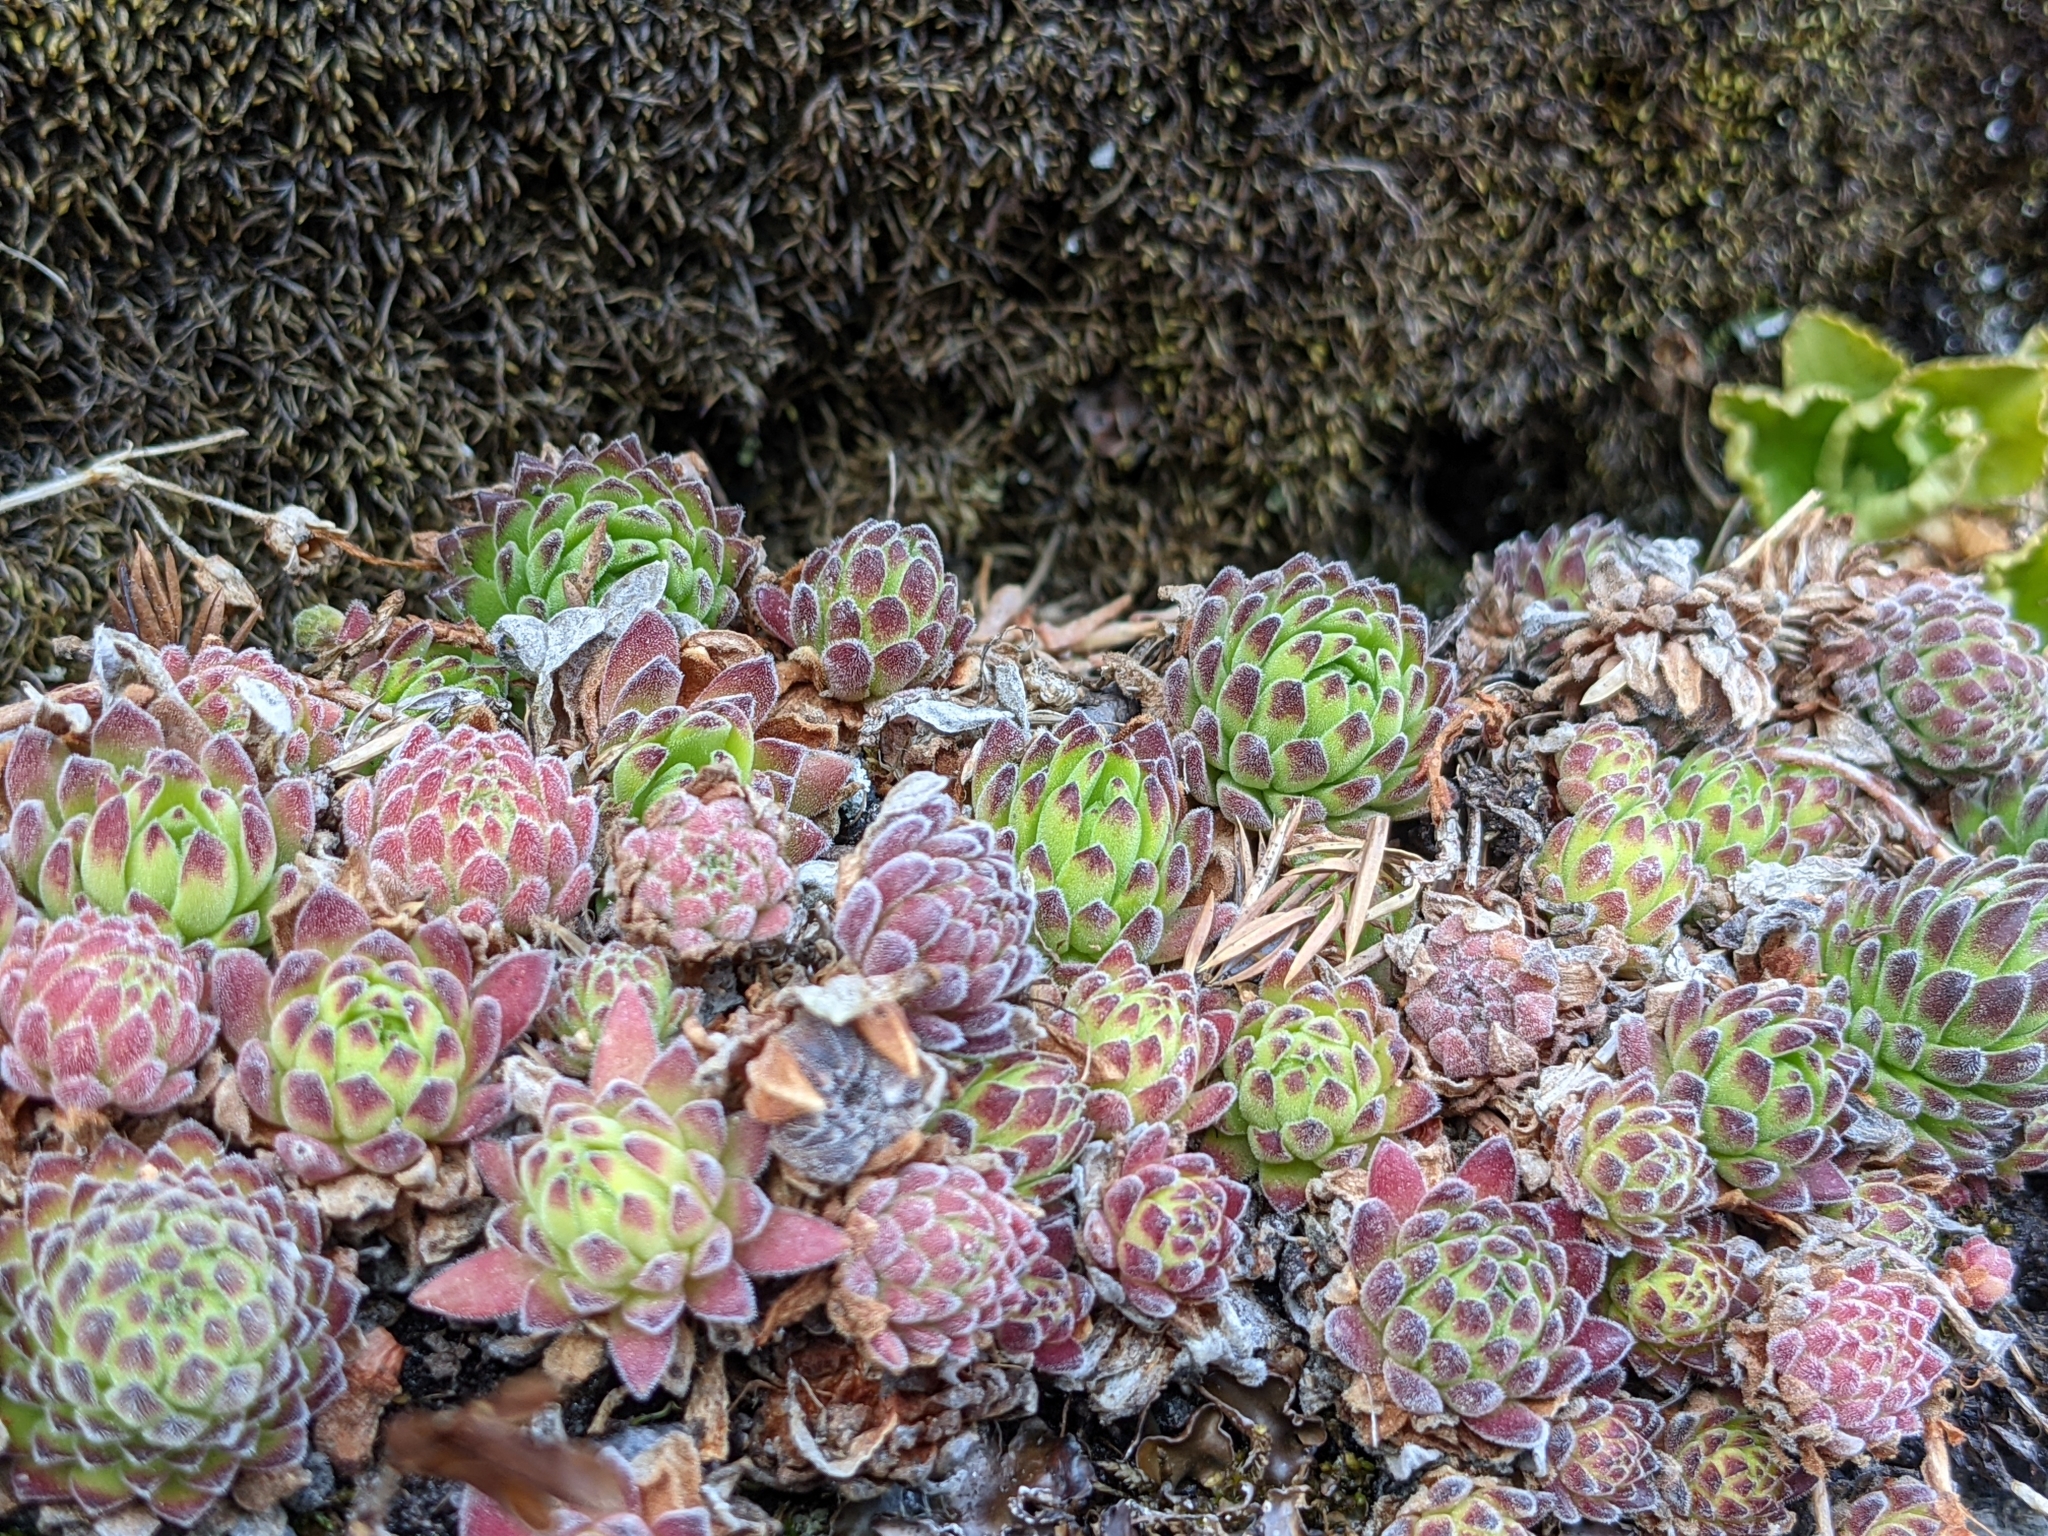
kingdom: Plantae
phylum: Tracheophyta
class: Magnoliopsida
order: Saxifragales
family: Crassulaceae
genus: Sempervivum
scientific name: Sempervivum montanum
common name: Mountain house-leek
